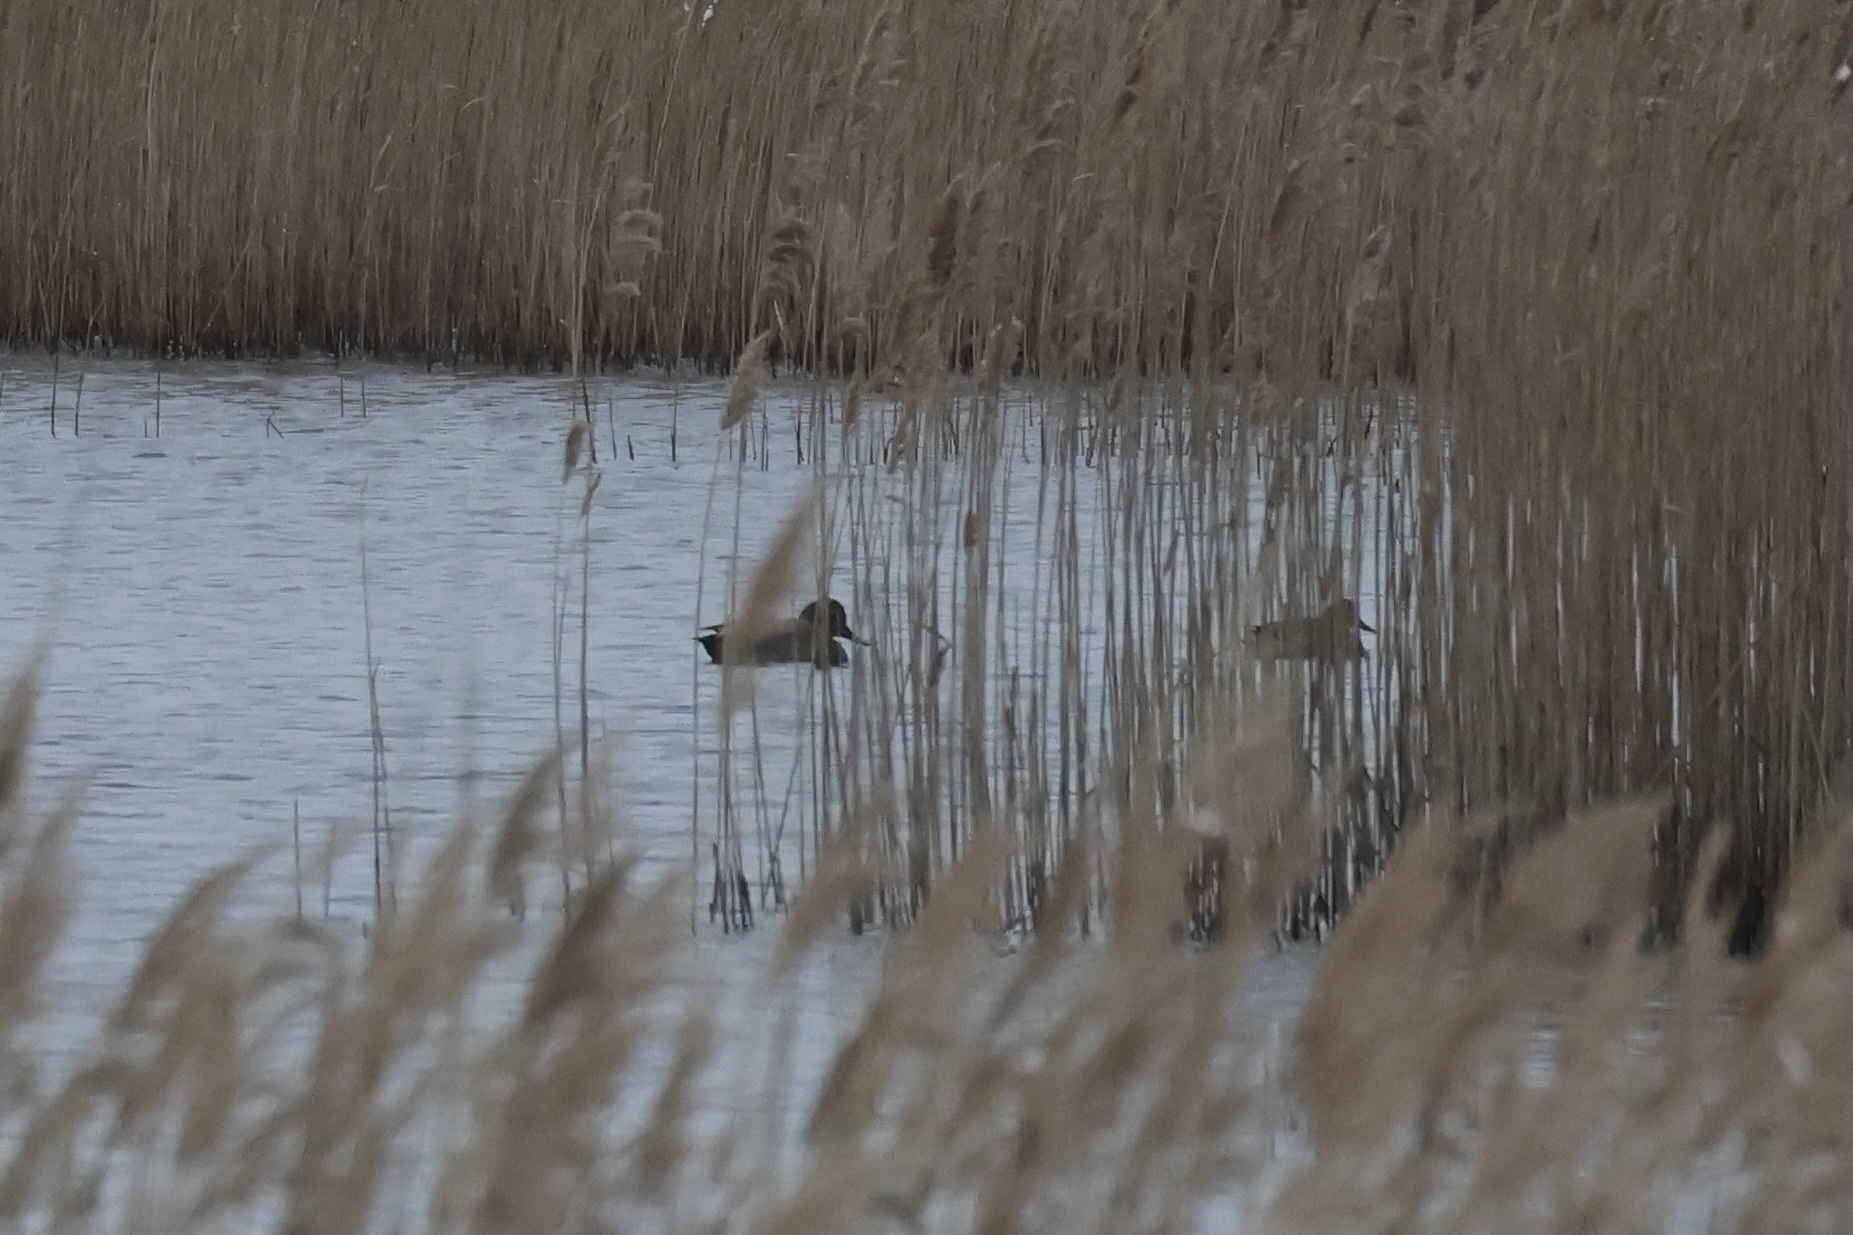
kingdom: Animalia
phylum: Chordata
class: Aves
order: Anseriformes
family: Anatidae
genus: Mareca
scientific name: Mareca strepera
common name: Gadwall
